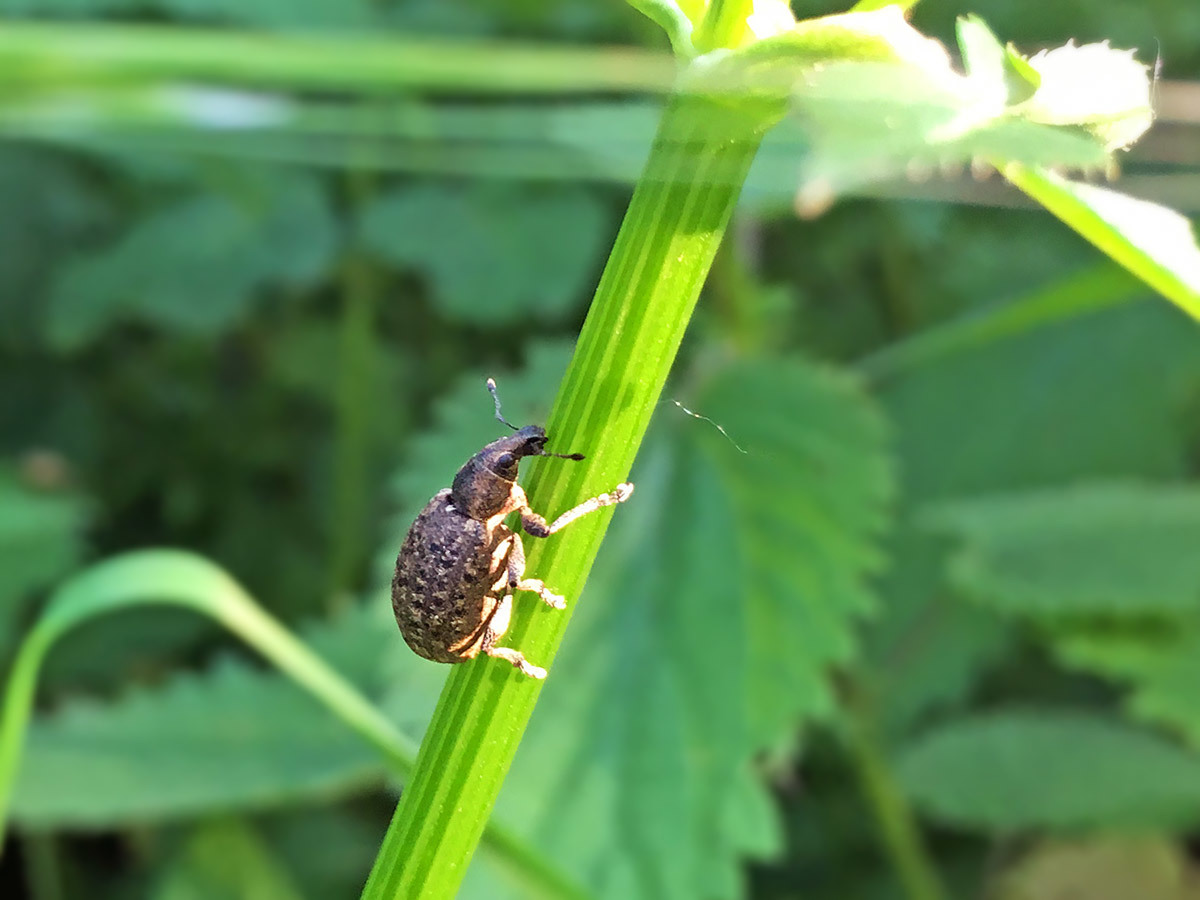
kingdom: Animalia
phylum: Arthropoda
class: Insecta
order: Coleoptera
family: Curculionidae
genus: Liophloeus
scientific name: Liophloeus tessulatus
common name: Weevil
